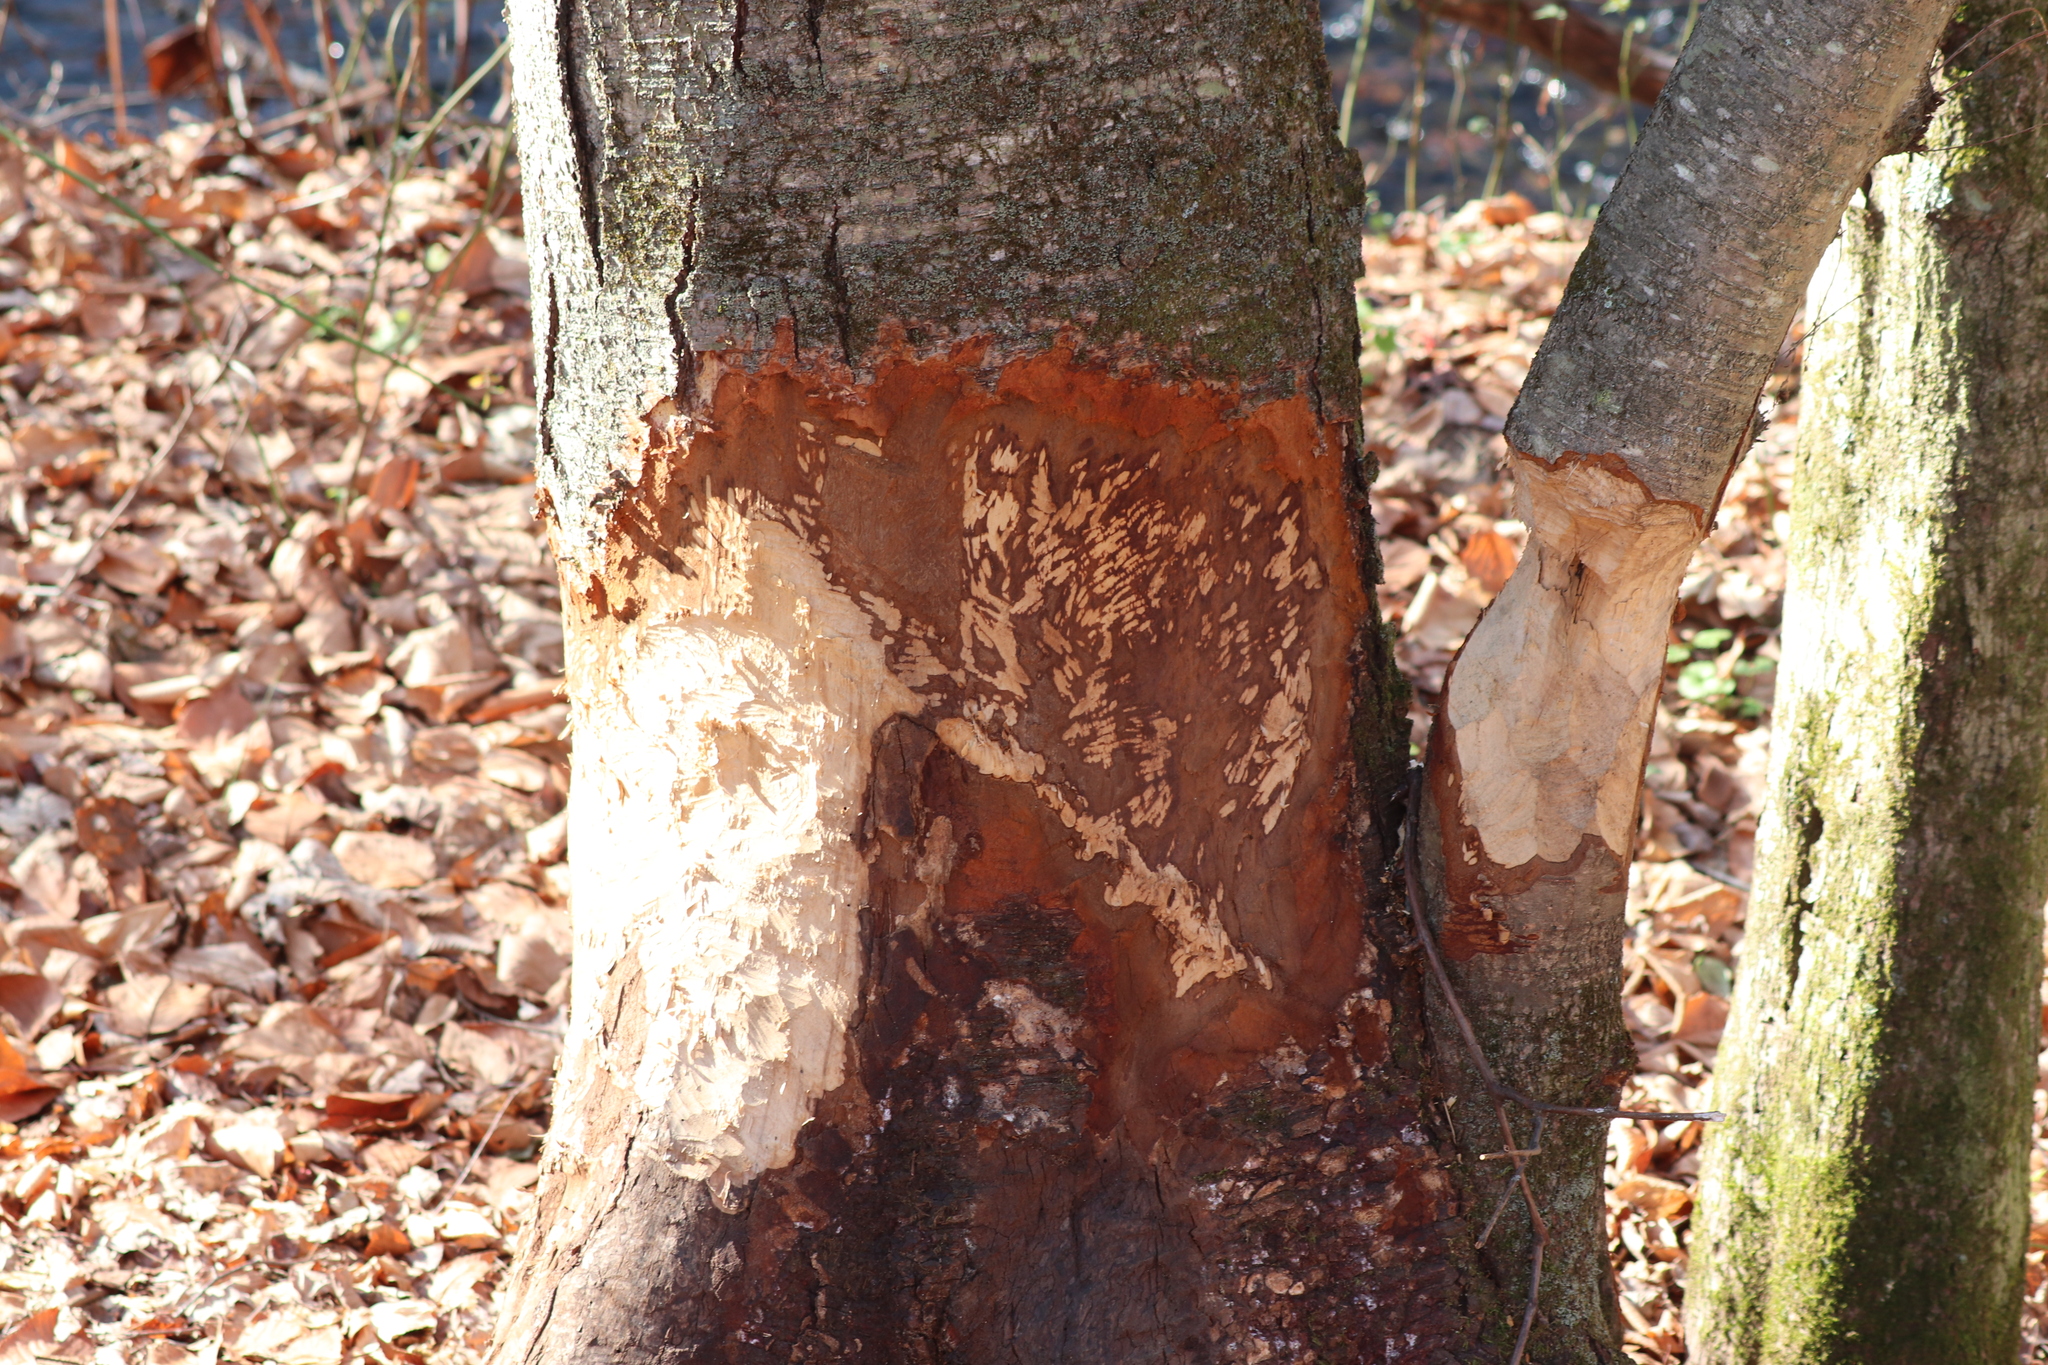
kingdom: Animalia
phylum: Chordata
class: Mammalia
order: Rodentia
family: Castoridae
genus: Castor
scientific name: Castor canadensis
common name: American beaver
